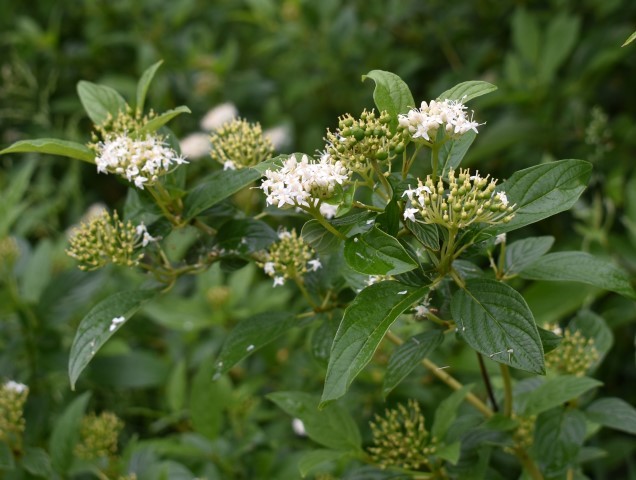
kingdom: Plantae
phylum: Tracheophyta
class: Magnoliopsida
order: Cornales
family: Cornaceae
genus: Cornus
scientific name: Cornus sericea
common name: Red-osier dogwood
